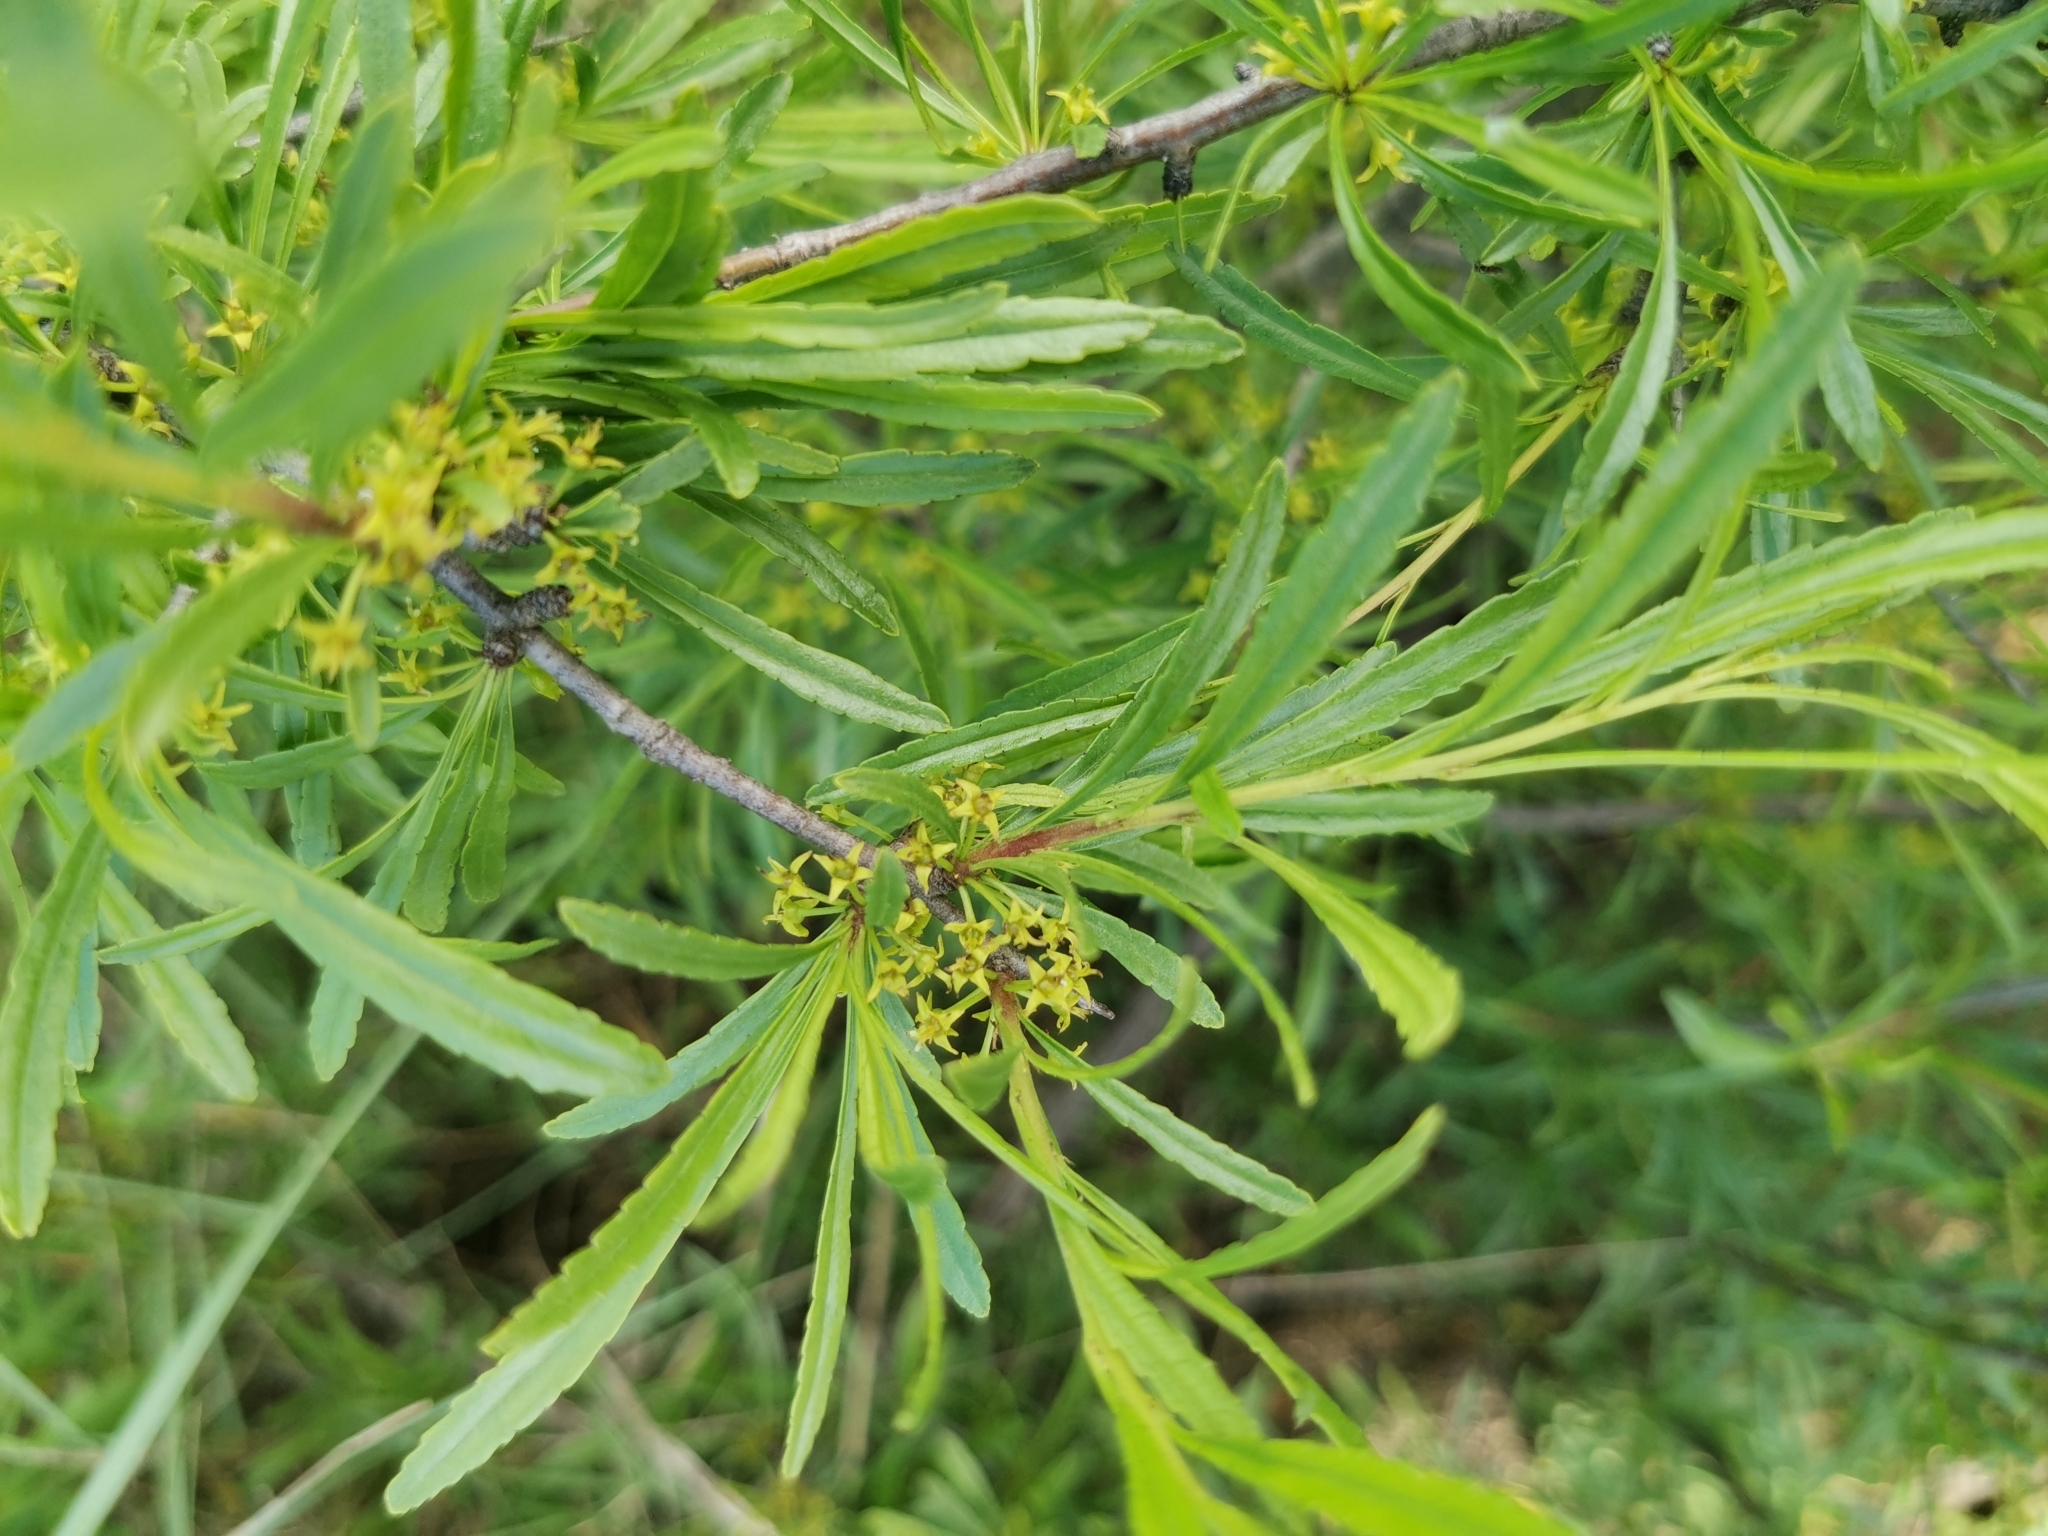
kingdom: Plantae
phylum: Tracheophyta
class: Magnoliopsida
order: Rosales
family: Rhamnaceae
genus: Rhamnus
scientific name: Rhamnus erythroxyloides
